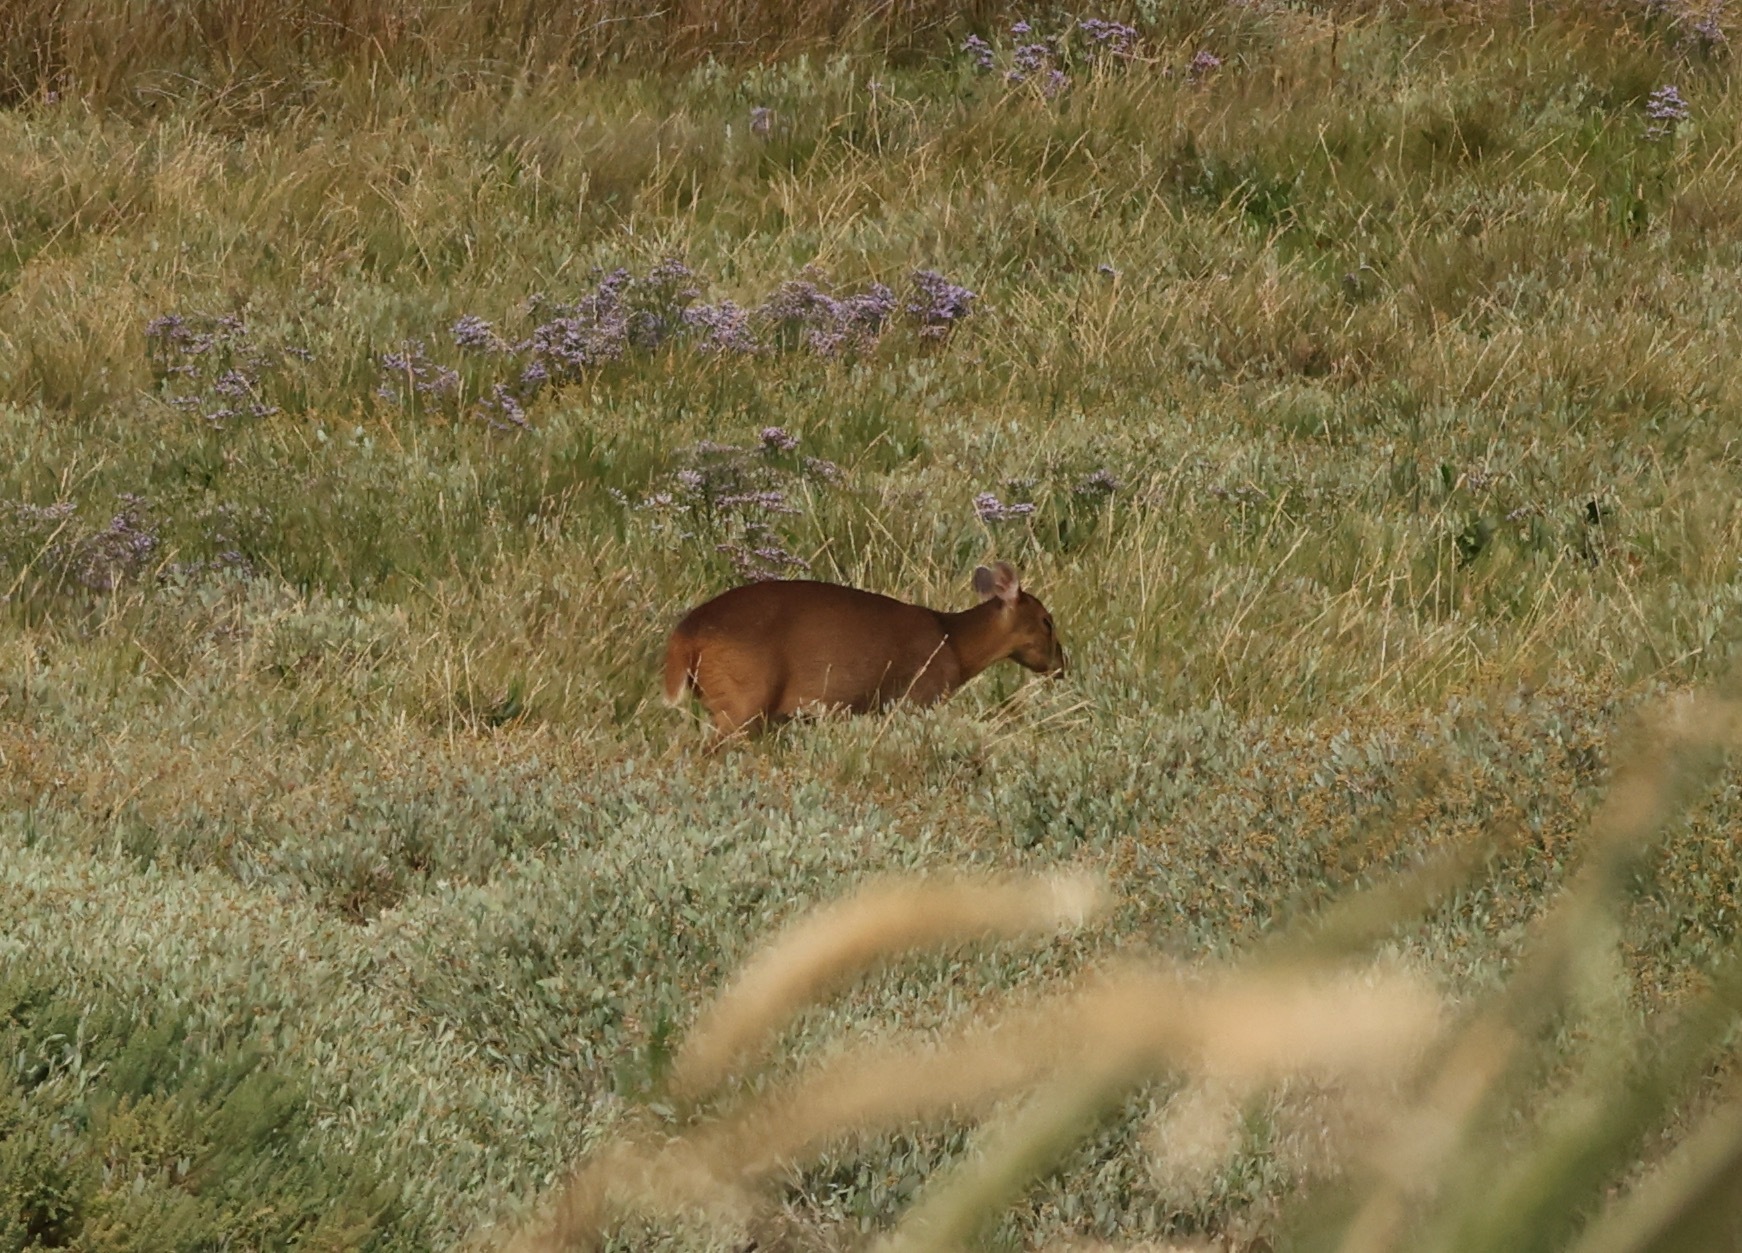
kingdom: Animalia
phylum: Chordata
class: Mammalia
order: Artiodactyla
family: Cervidae
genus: Muntiacus
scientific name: Muntiacus reevesi
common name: Reeves' muntjac
